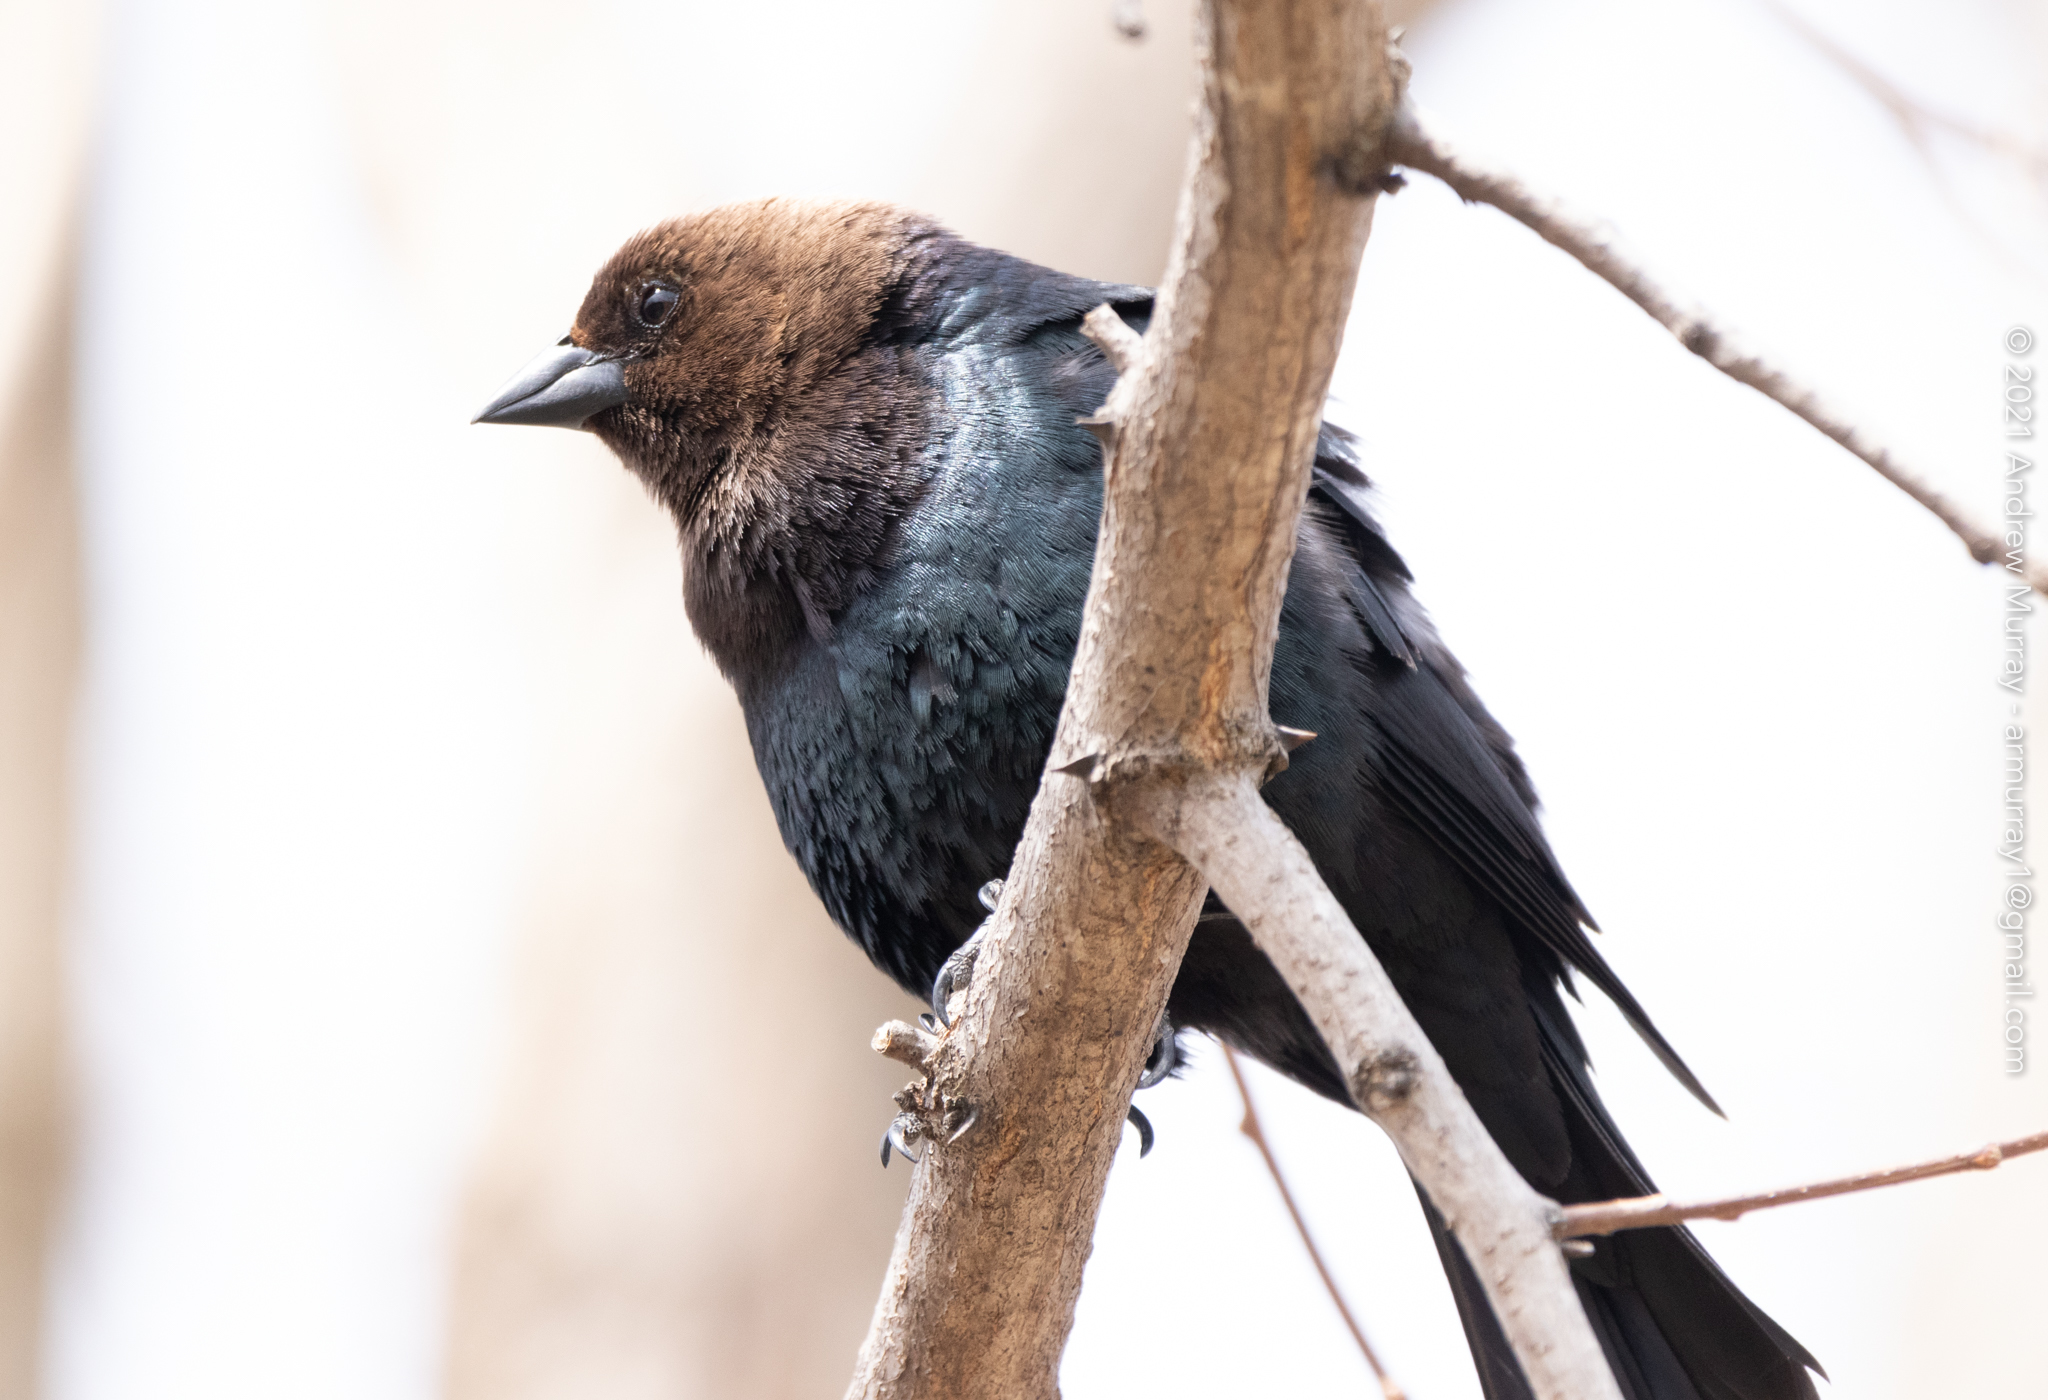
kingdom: Animalia
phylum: Chordata
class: Aves
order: Passeriformes
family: Icteridae
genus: Molothrus
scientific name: Molothrus ater
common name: Brown-headed cowbird
